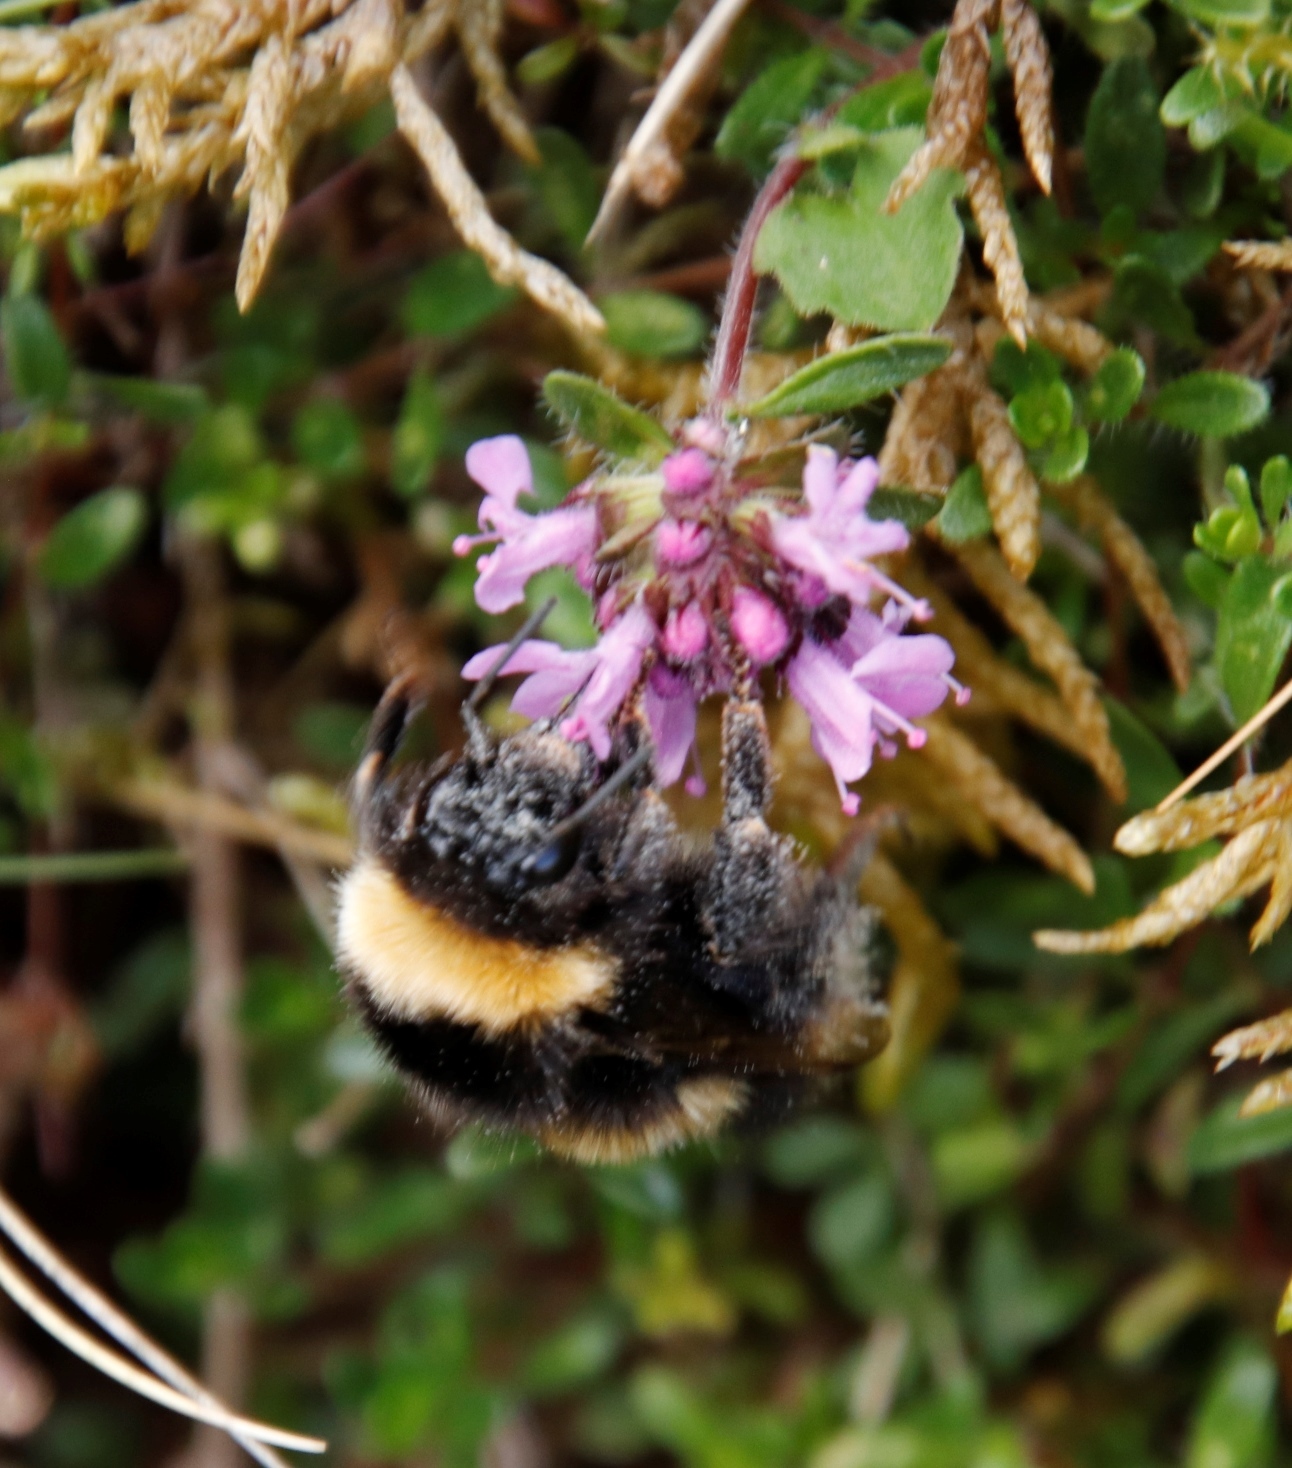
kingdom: Plantae
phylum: Tracheophyta
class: Magnoliopsida
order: Lamiales
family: Lamiaceae
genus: Thymus
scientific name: Thymus praecox
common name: Wild thyme
